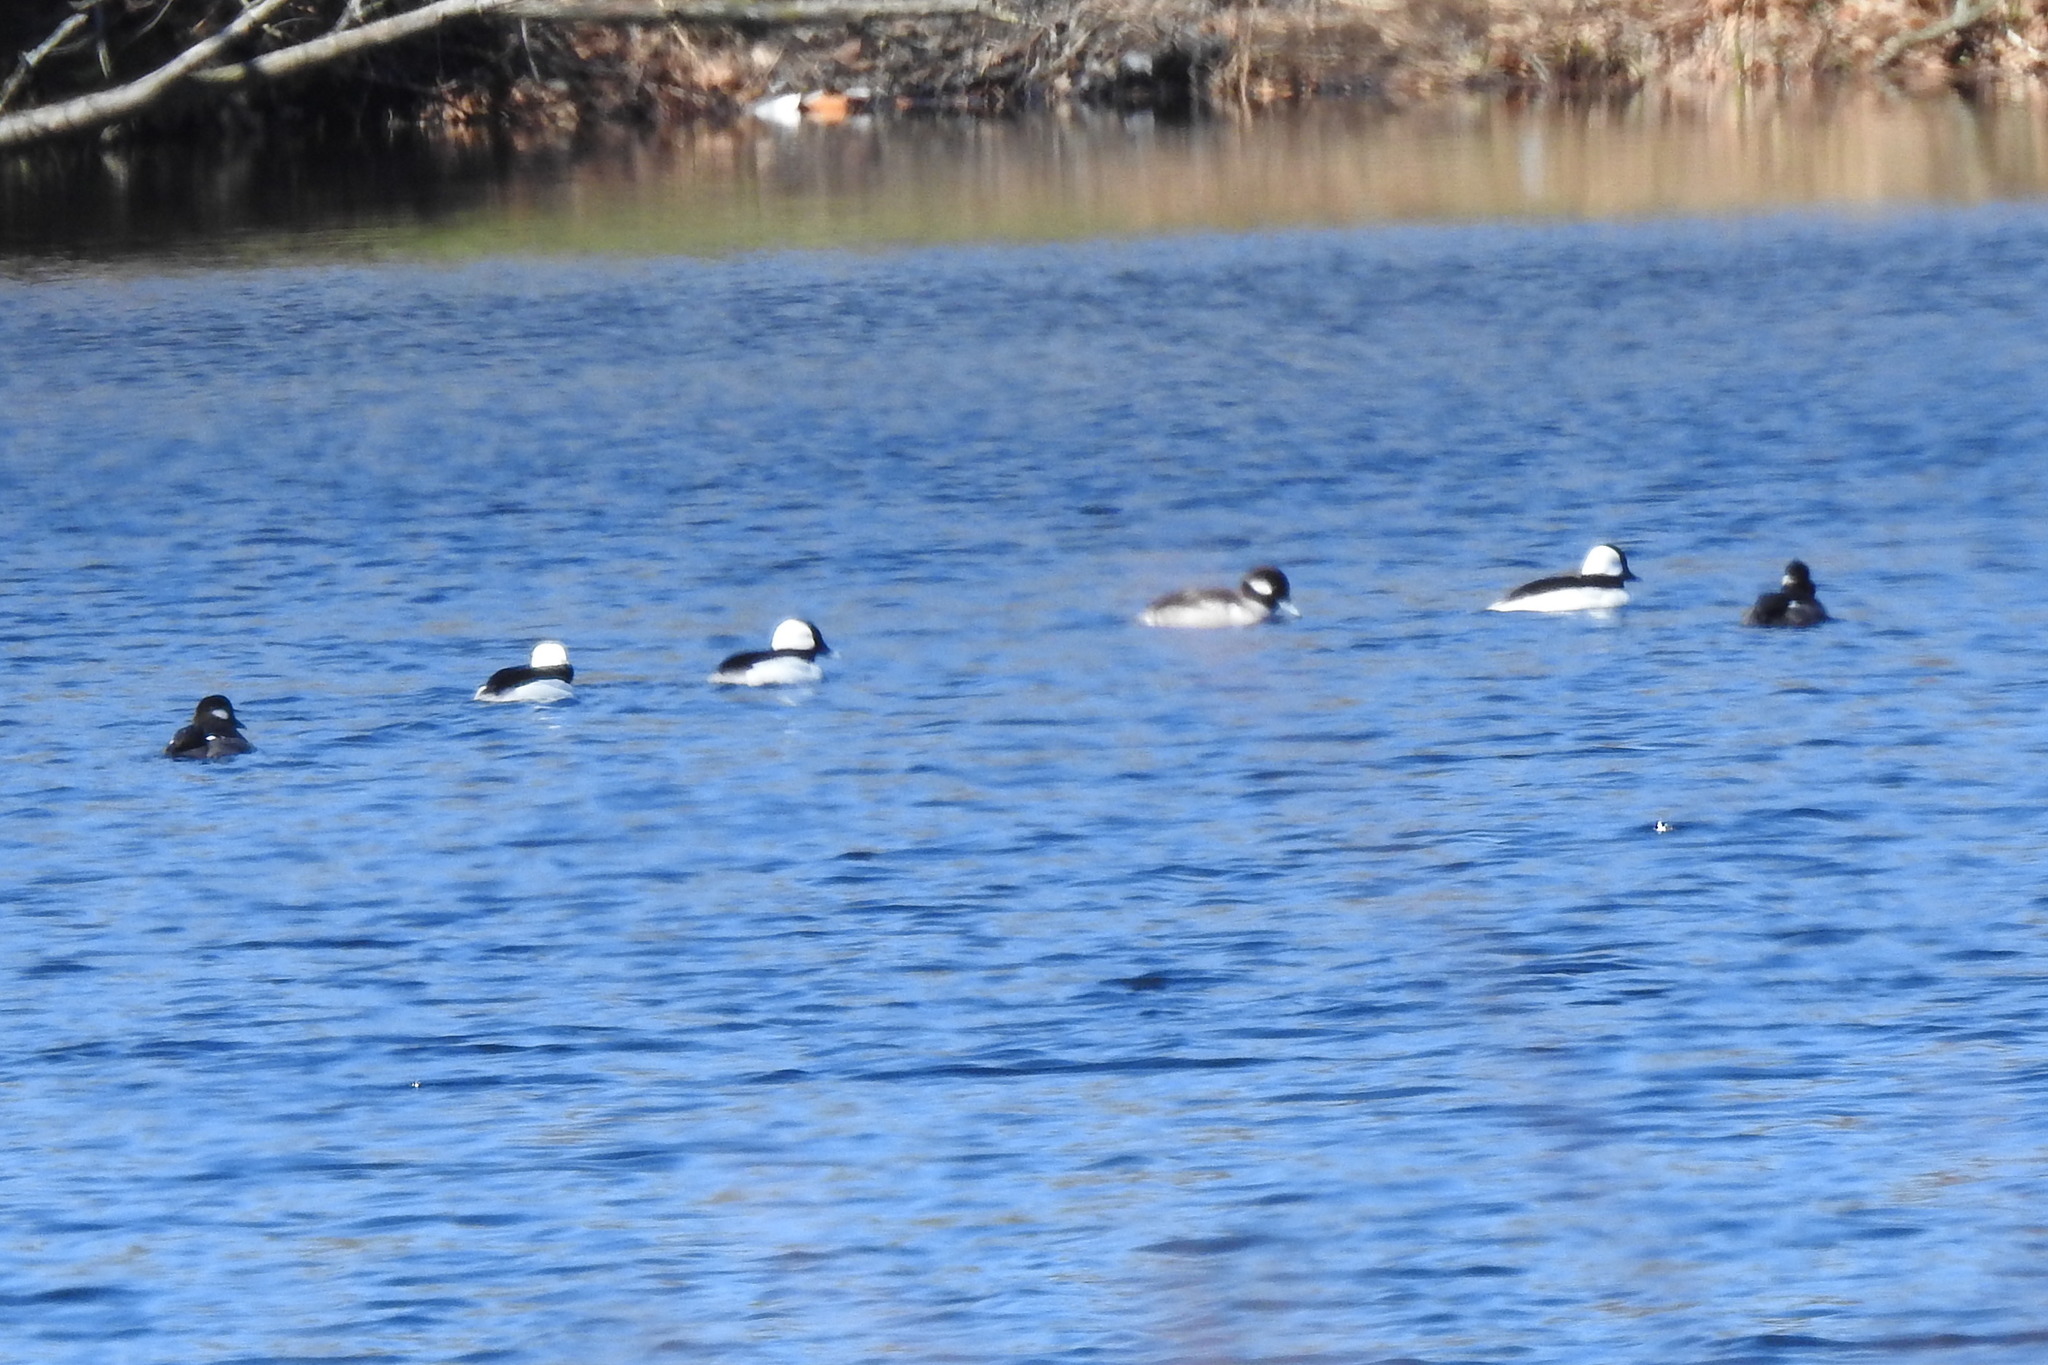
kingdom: Animalia
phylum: Chordata
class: Aves
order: Anseriformes
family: Anatidae
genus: Bucephala
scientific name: Bucephala albeola
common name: Bufflehead
